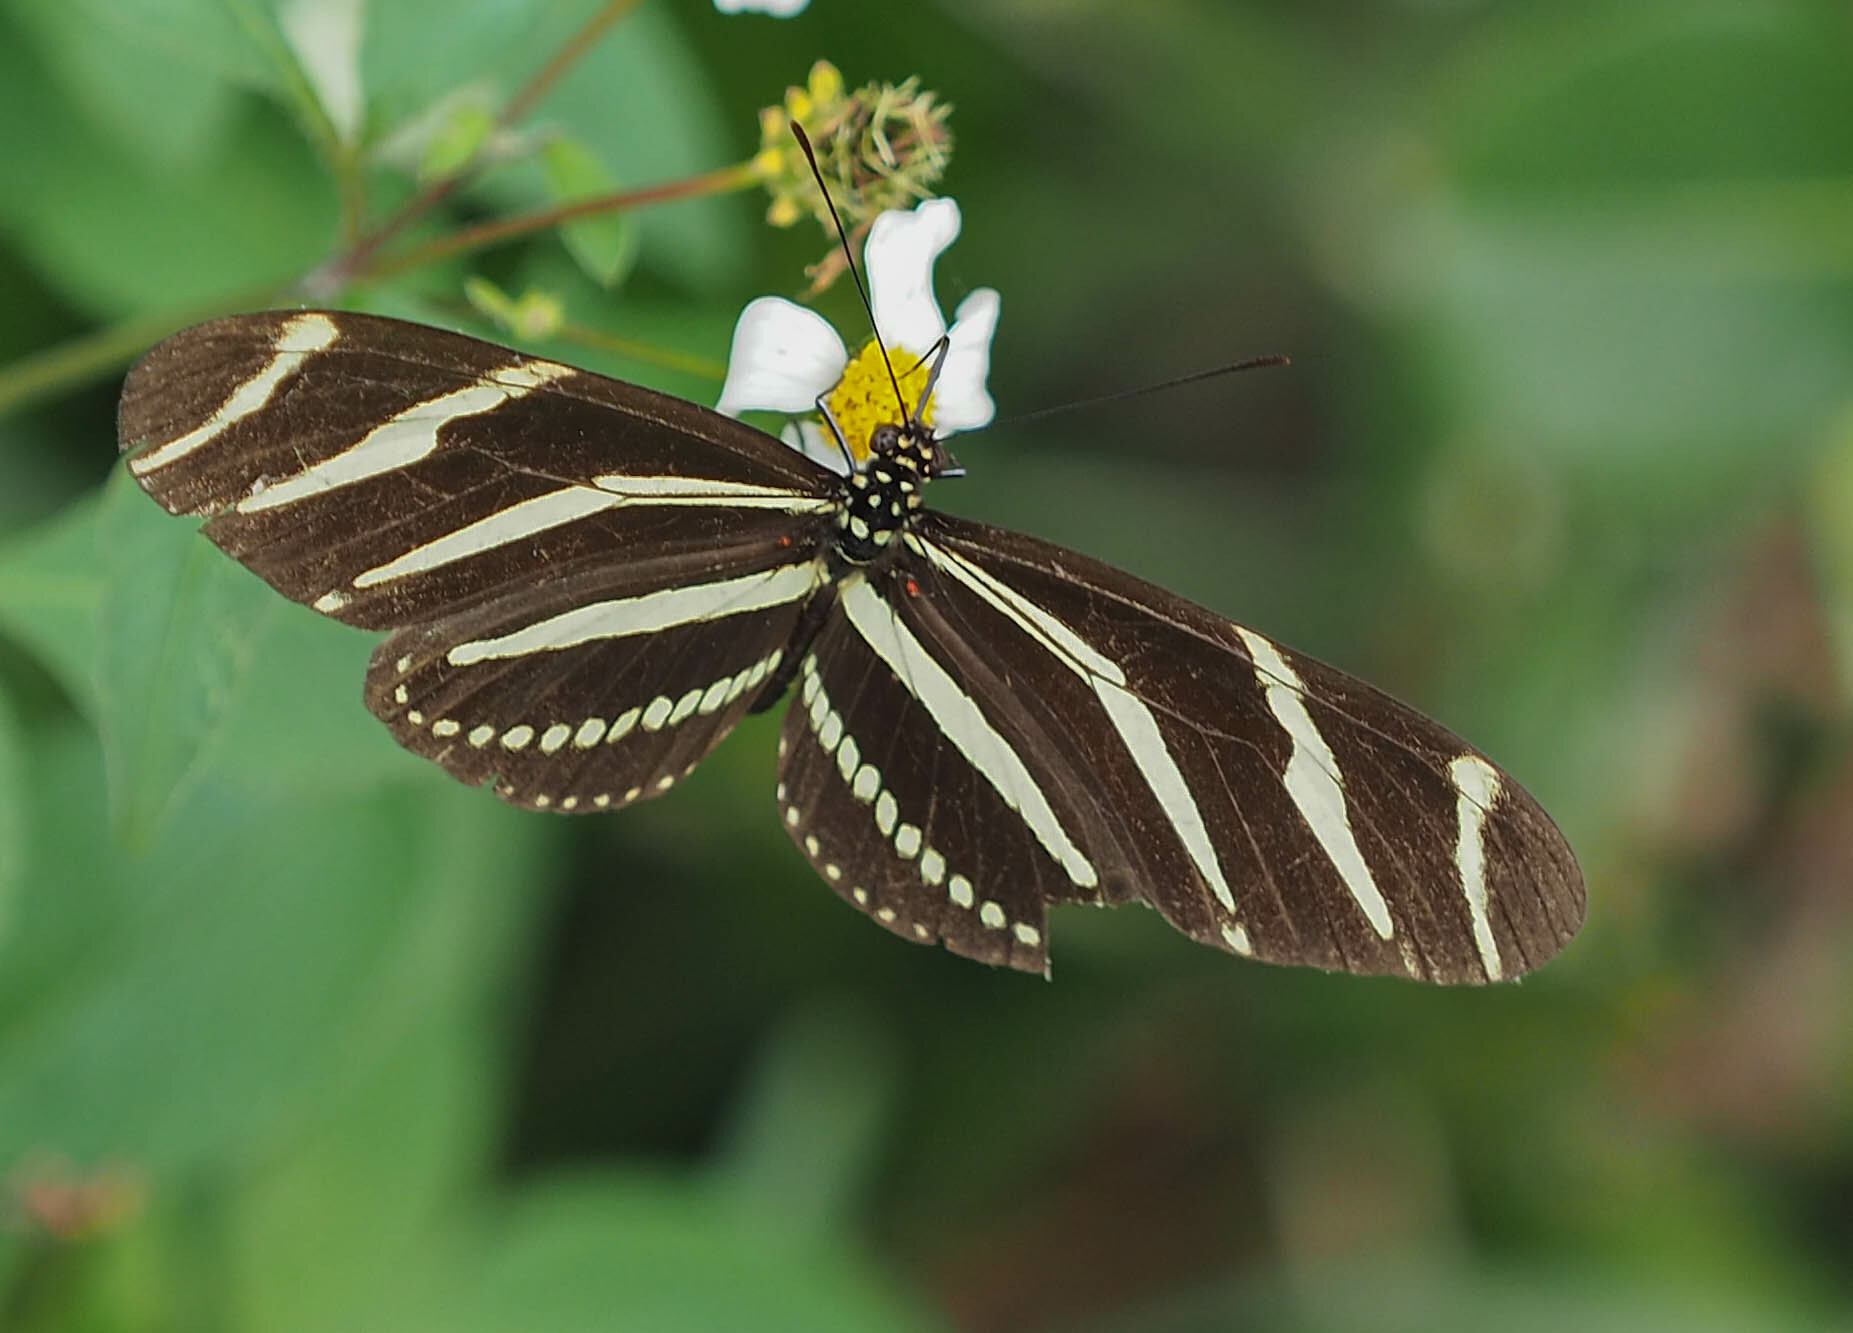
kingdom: Animalia
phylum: Arthropoda
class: Insecta
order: Lepidoptera
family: Nymphalidae
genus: Heliconius
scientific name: Heliconius charithonia
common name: Zebra long wing
